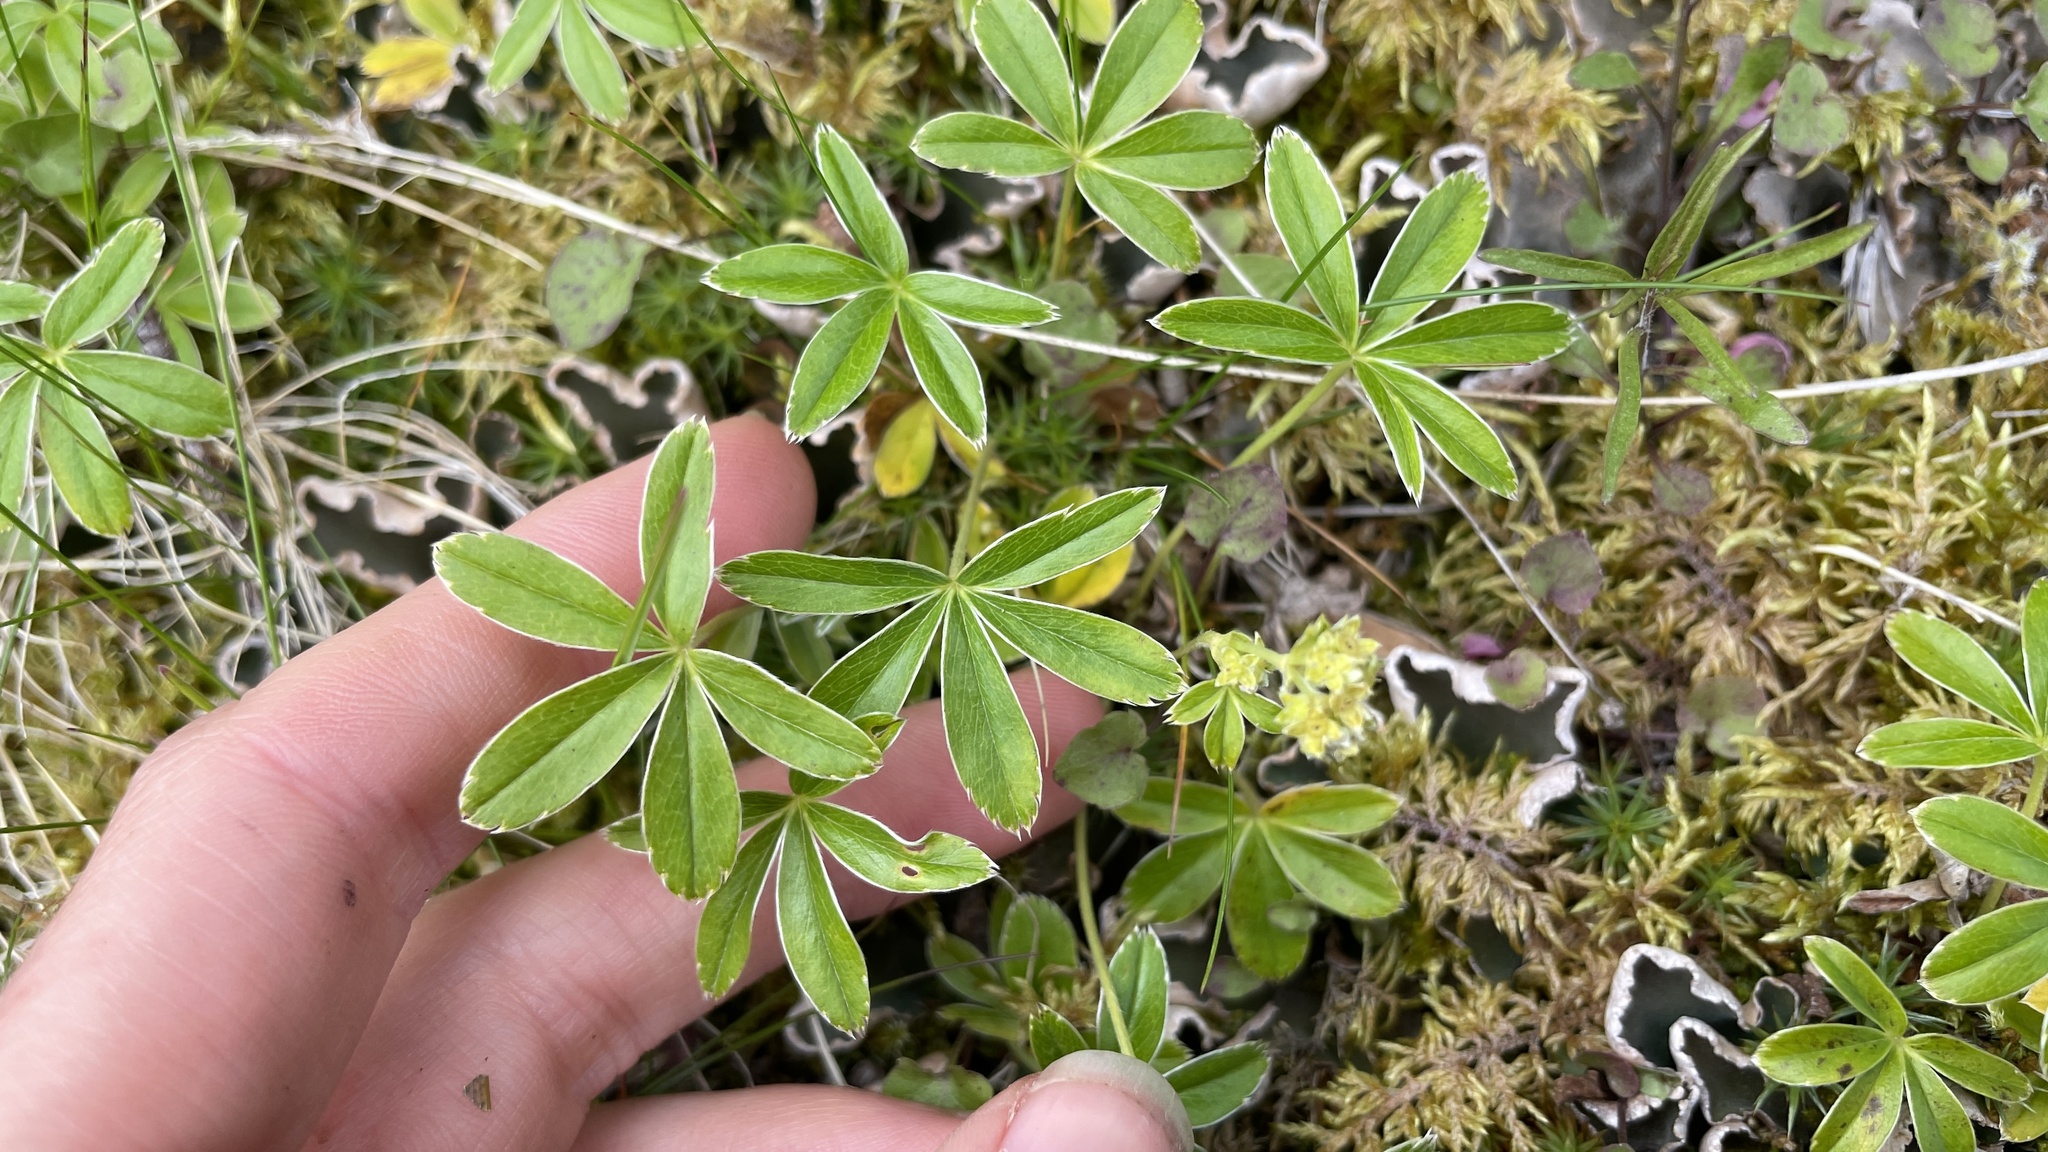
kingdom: Plantae
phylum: Tracheophyta
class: Magnoliopsida
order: Rosales
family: Rosaceae
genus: Alchemilla
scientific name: Alchemilla alpina
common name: Alpine lady's-mantle
